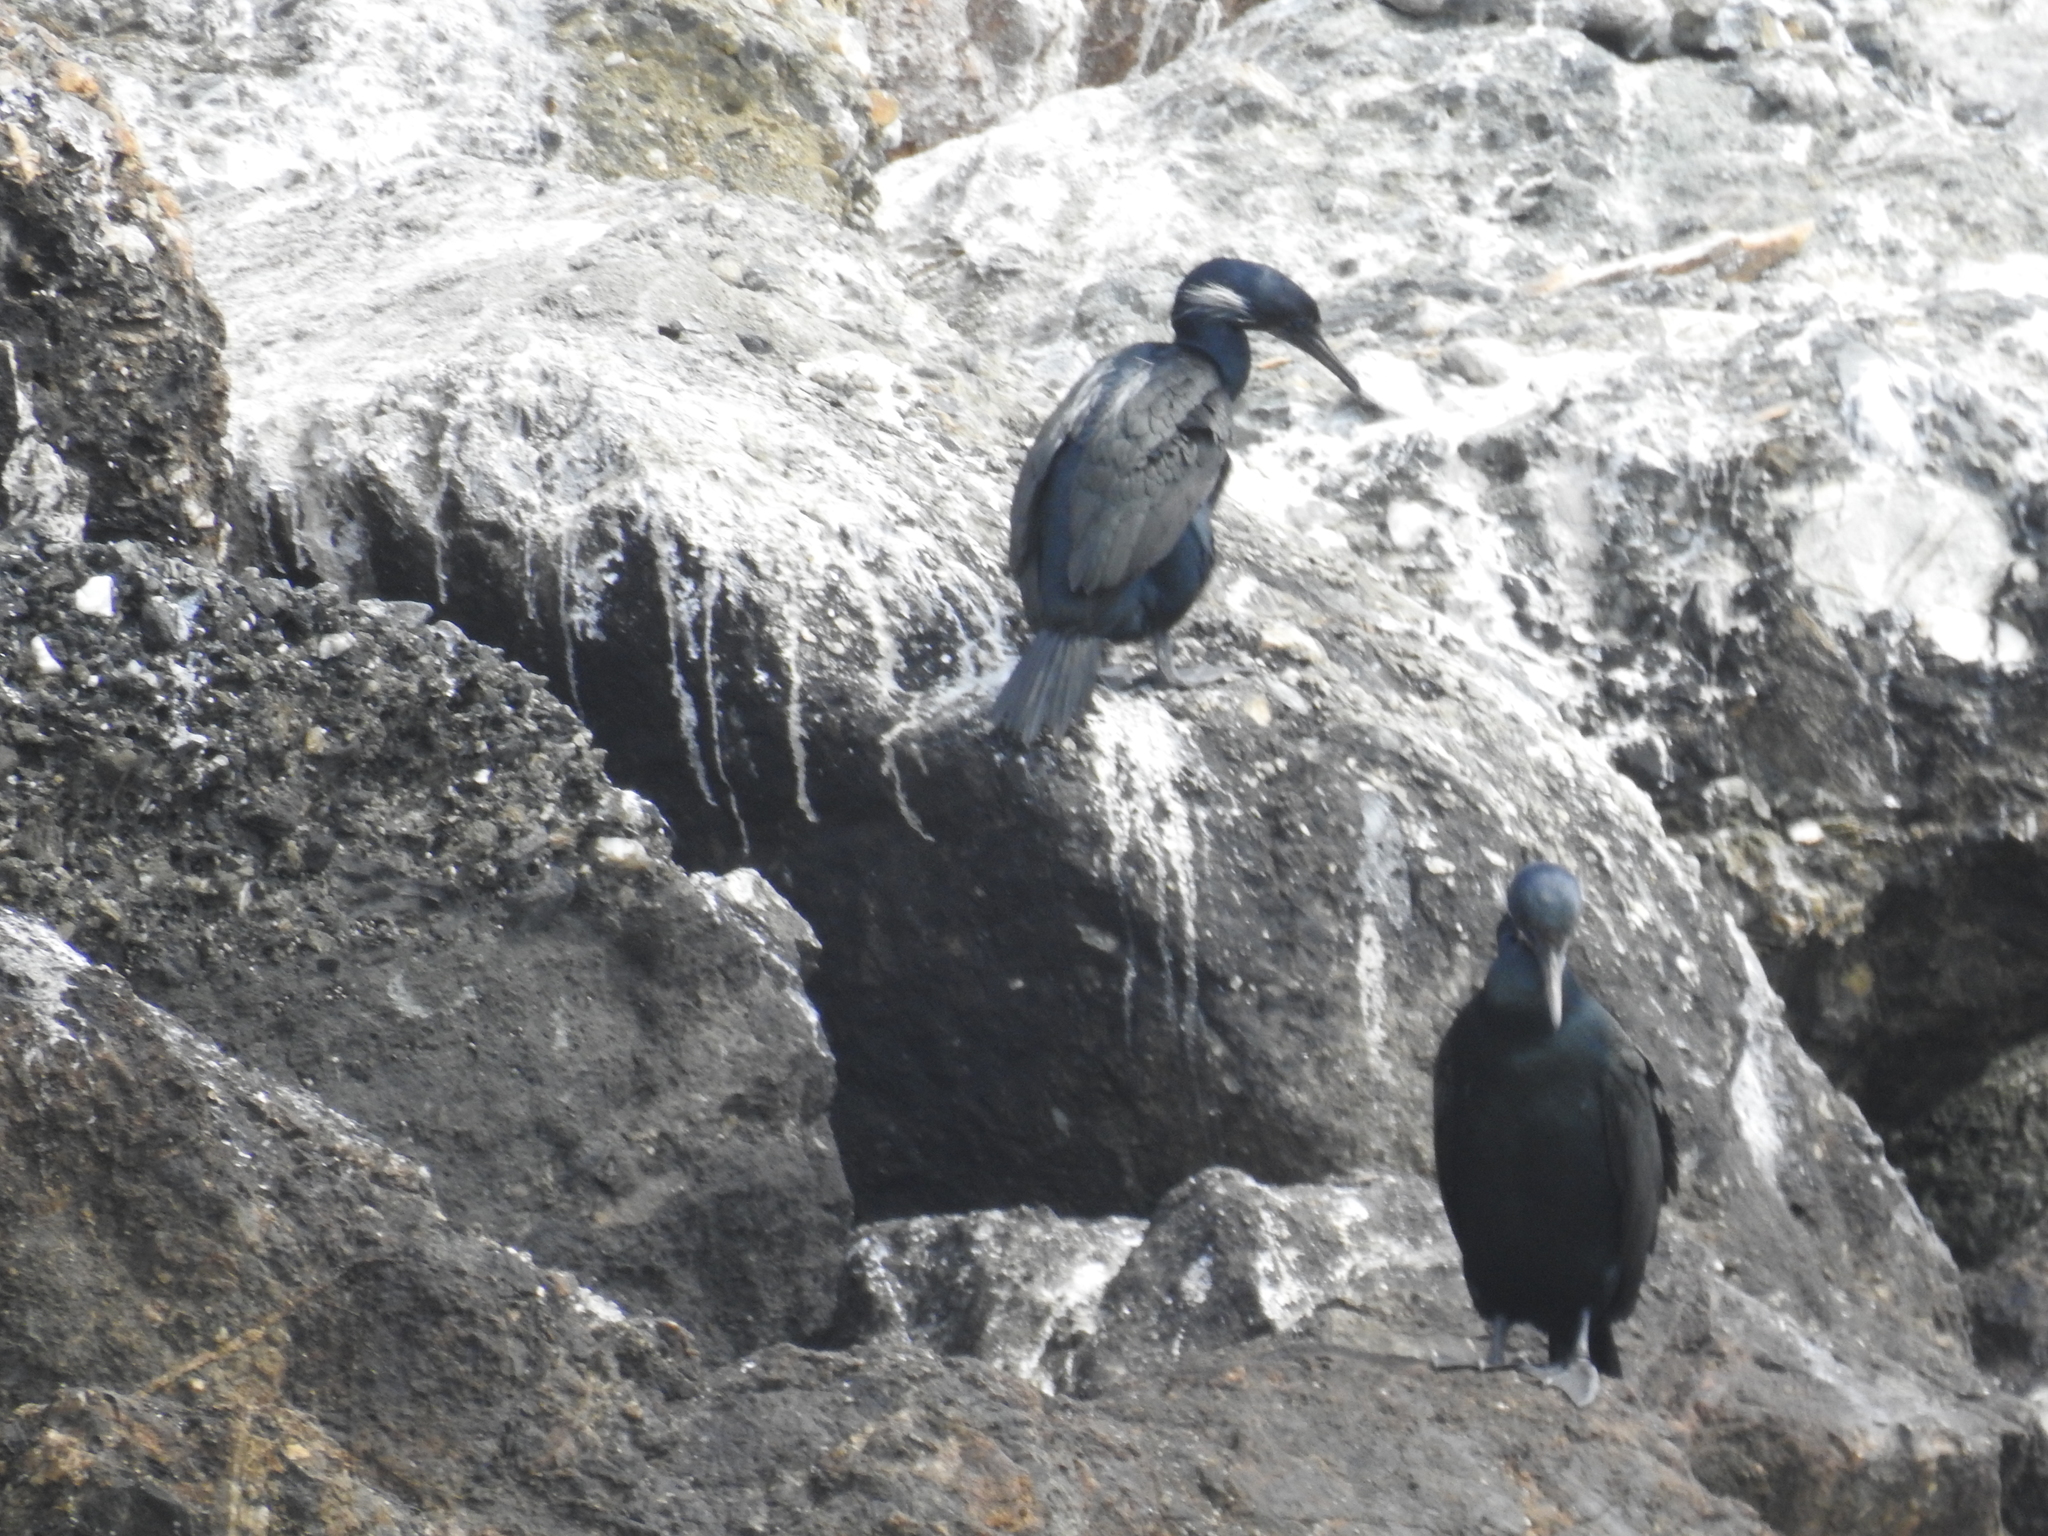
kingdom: Animalia
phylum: Chordata
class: Aves
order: Suliformes
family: Phalacrocoracidae
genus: Urile
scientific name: Urile penicillatus
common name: Brandt's cormorant
